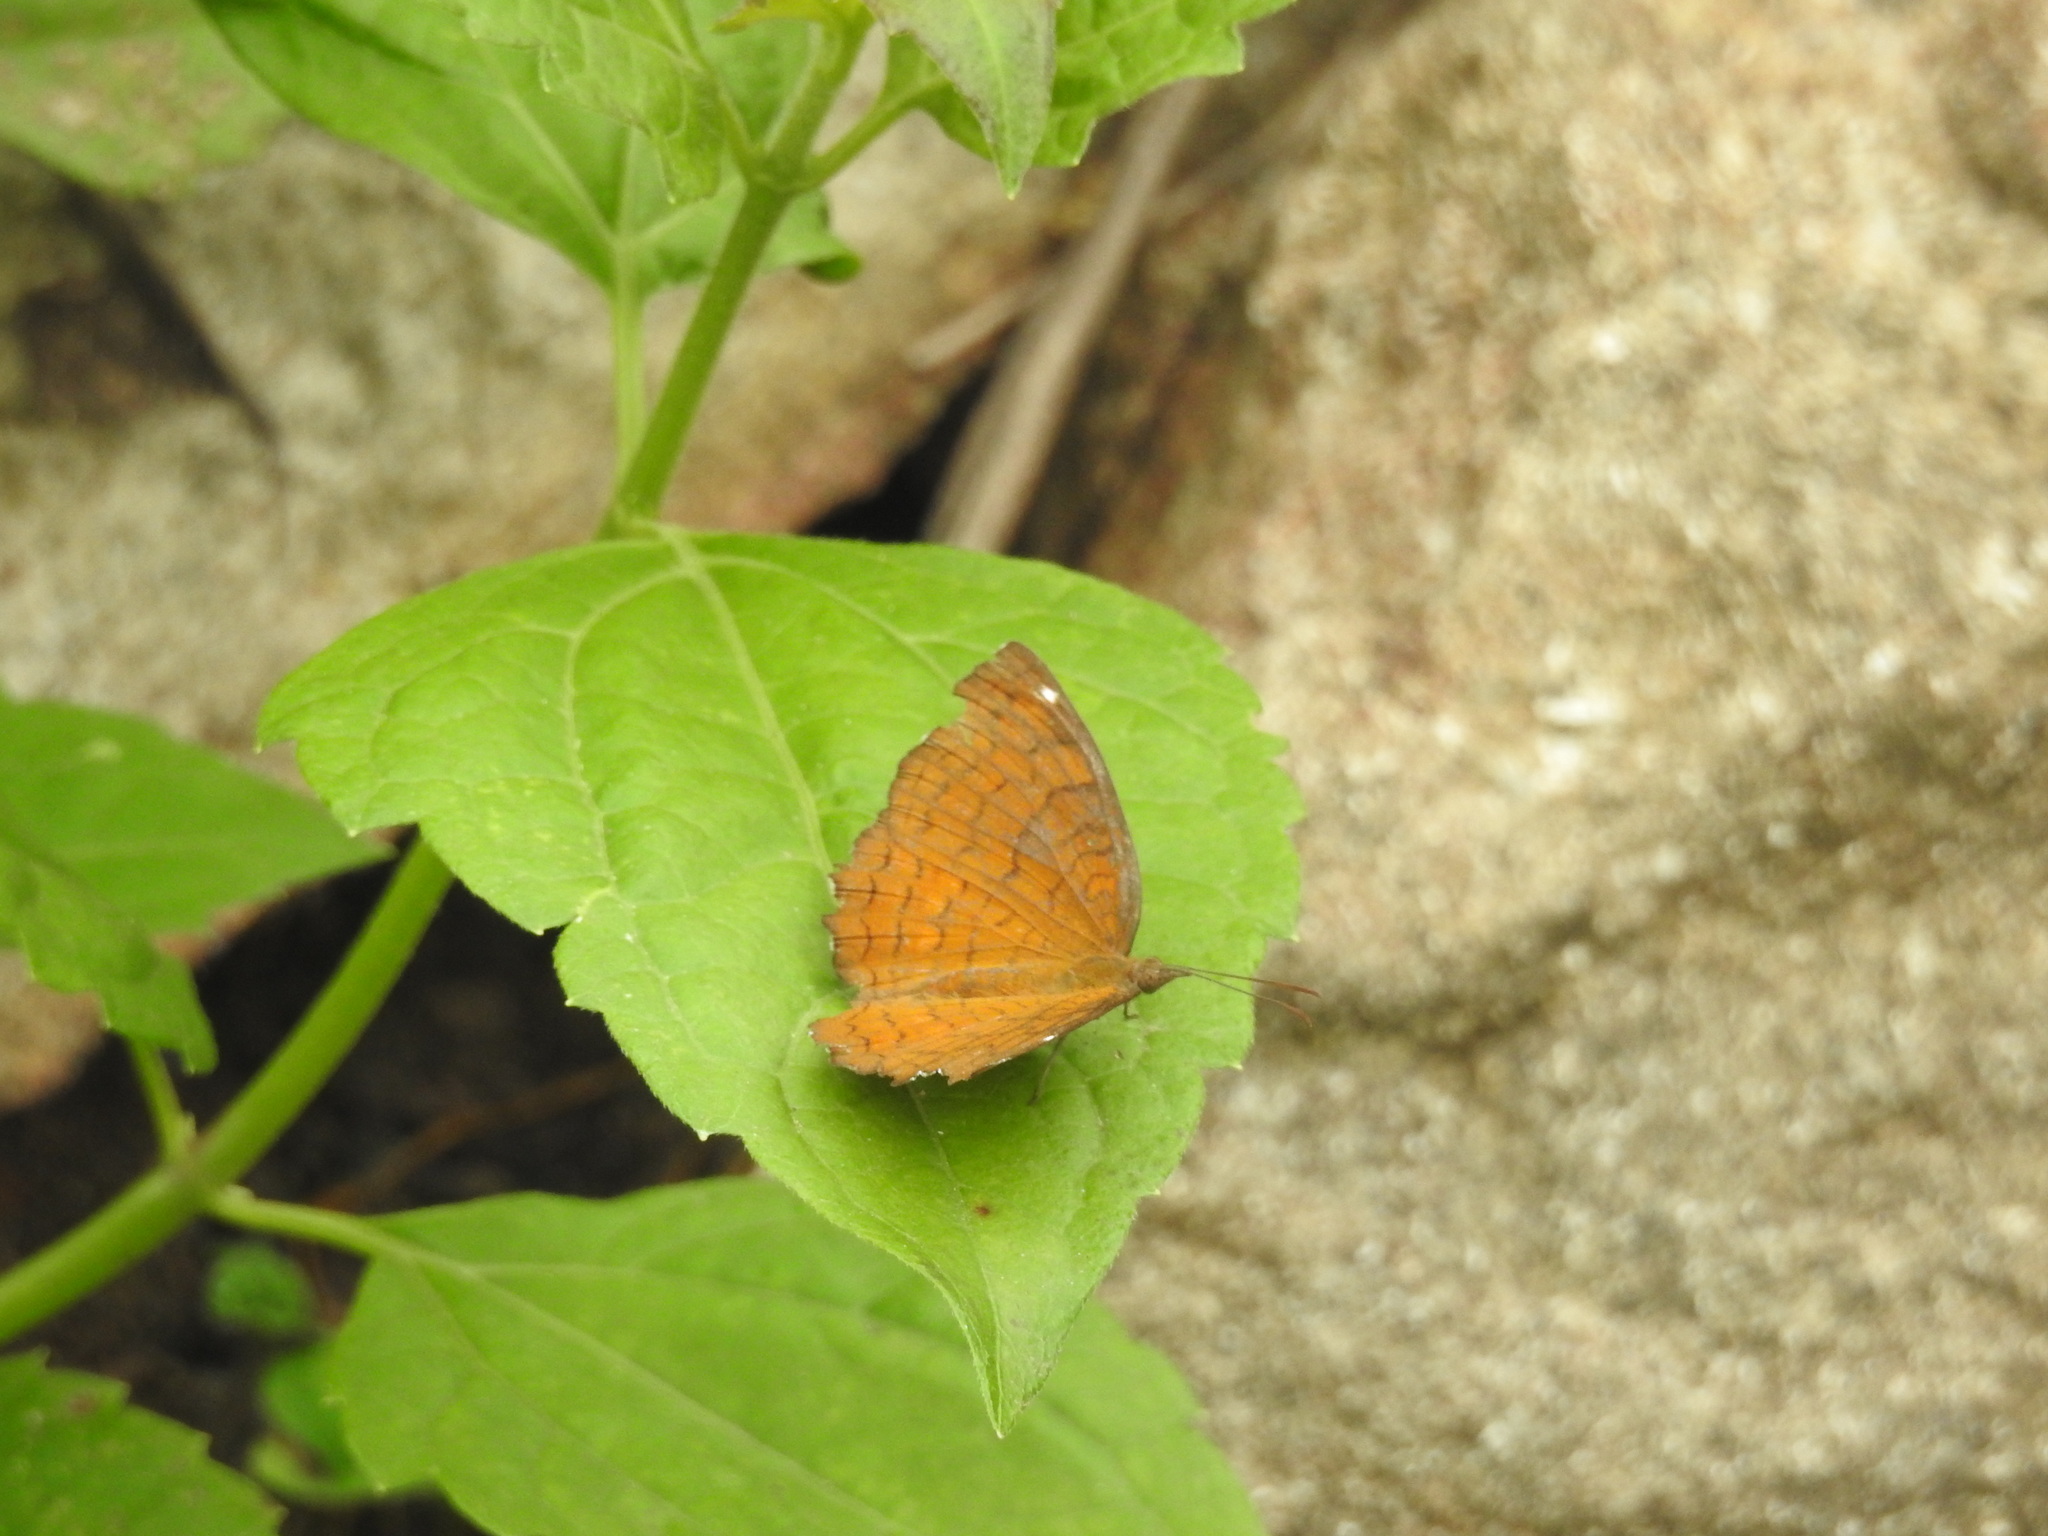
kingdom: Animalia
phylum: Arthropoda
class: Insecta
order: Lepidoptera
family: Nymphalidae
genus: Ariadne
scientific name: Ariadne ariadne
